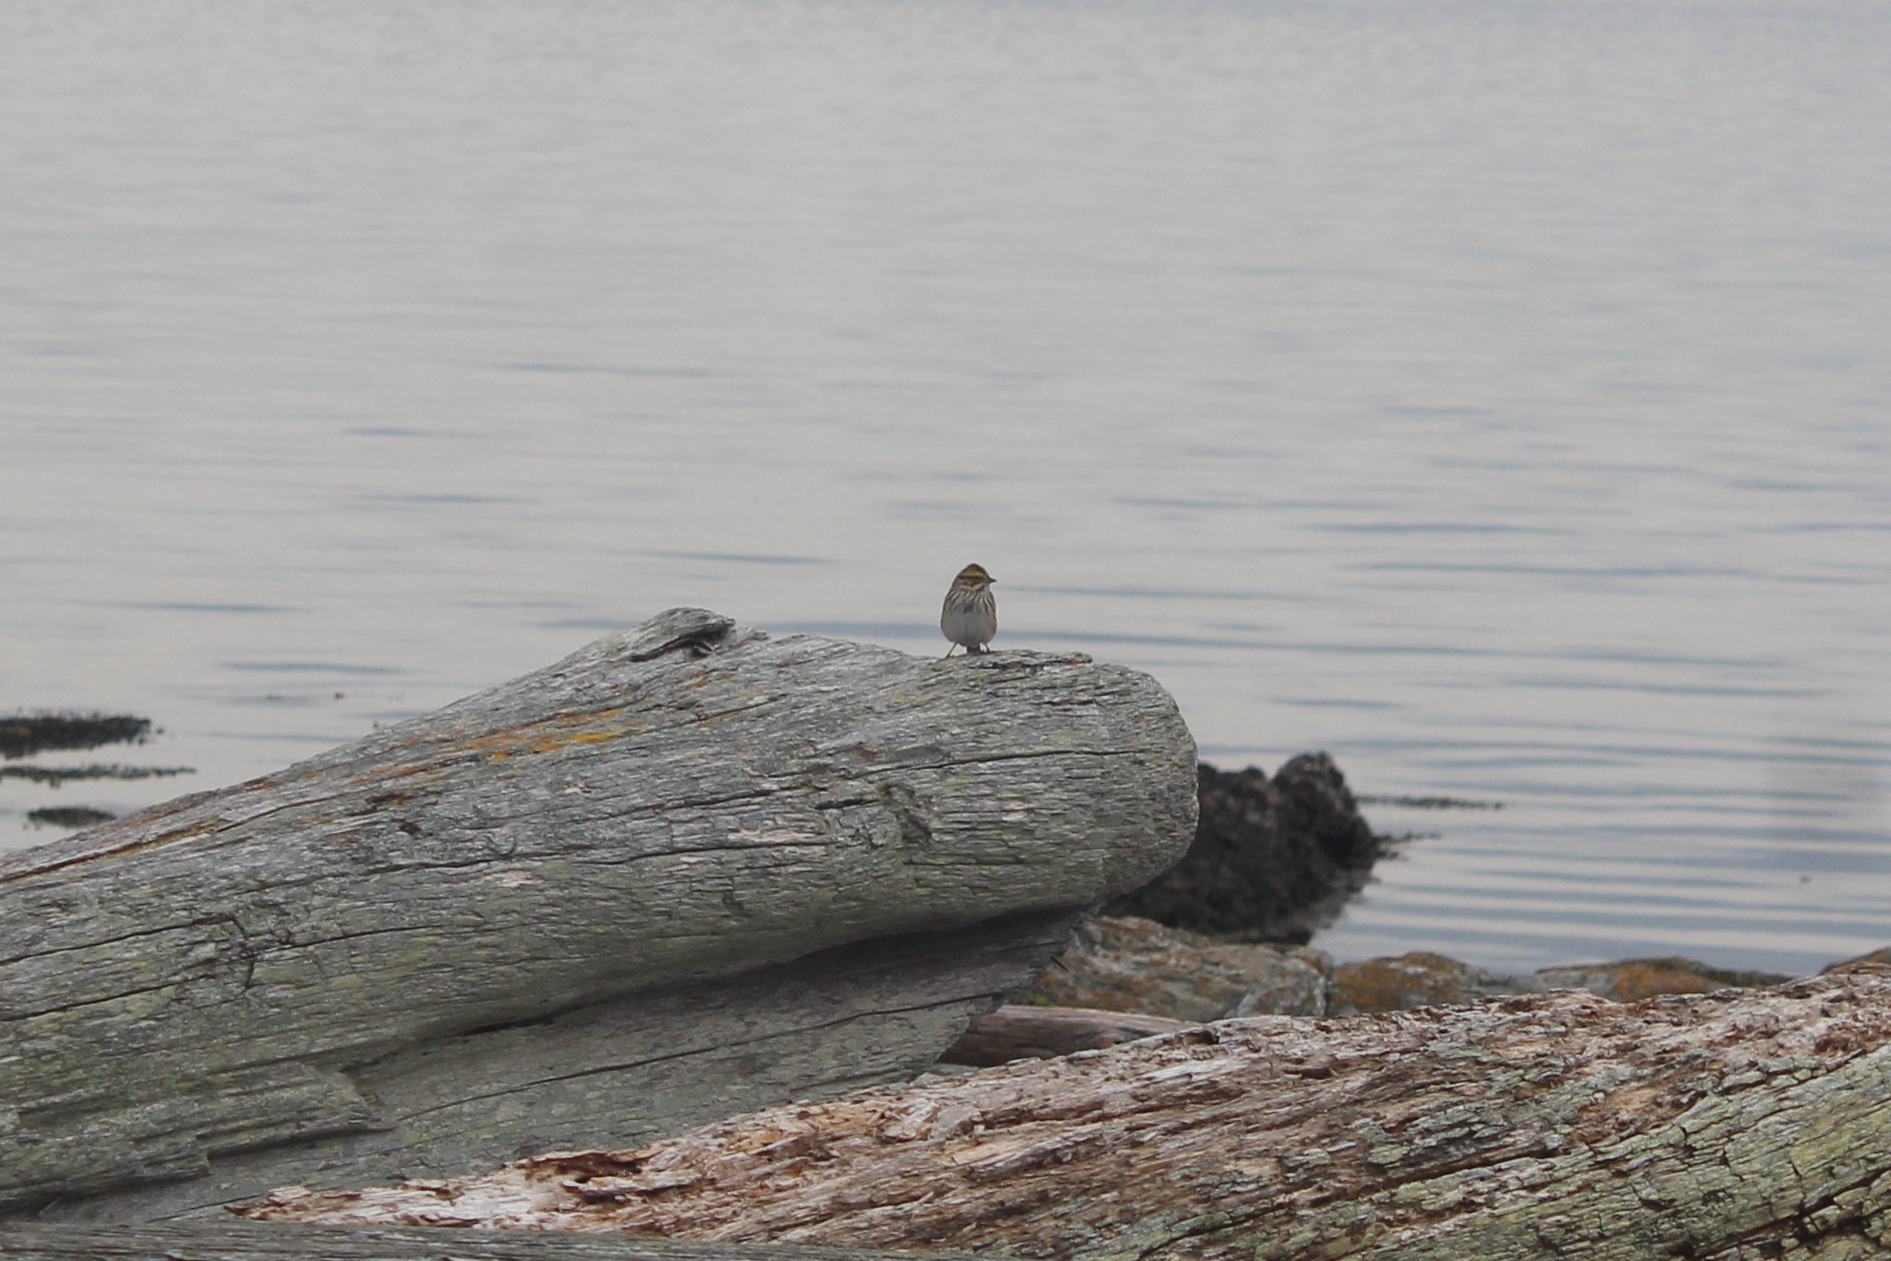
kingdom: Animalia
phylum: Chordata
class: Aves
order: Passeriformes
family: Passerellidae
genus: Passerculus
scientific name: Passerculus sandwichensis
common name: Savannah sparrow
